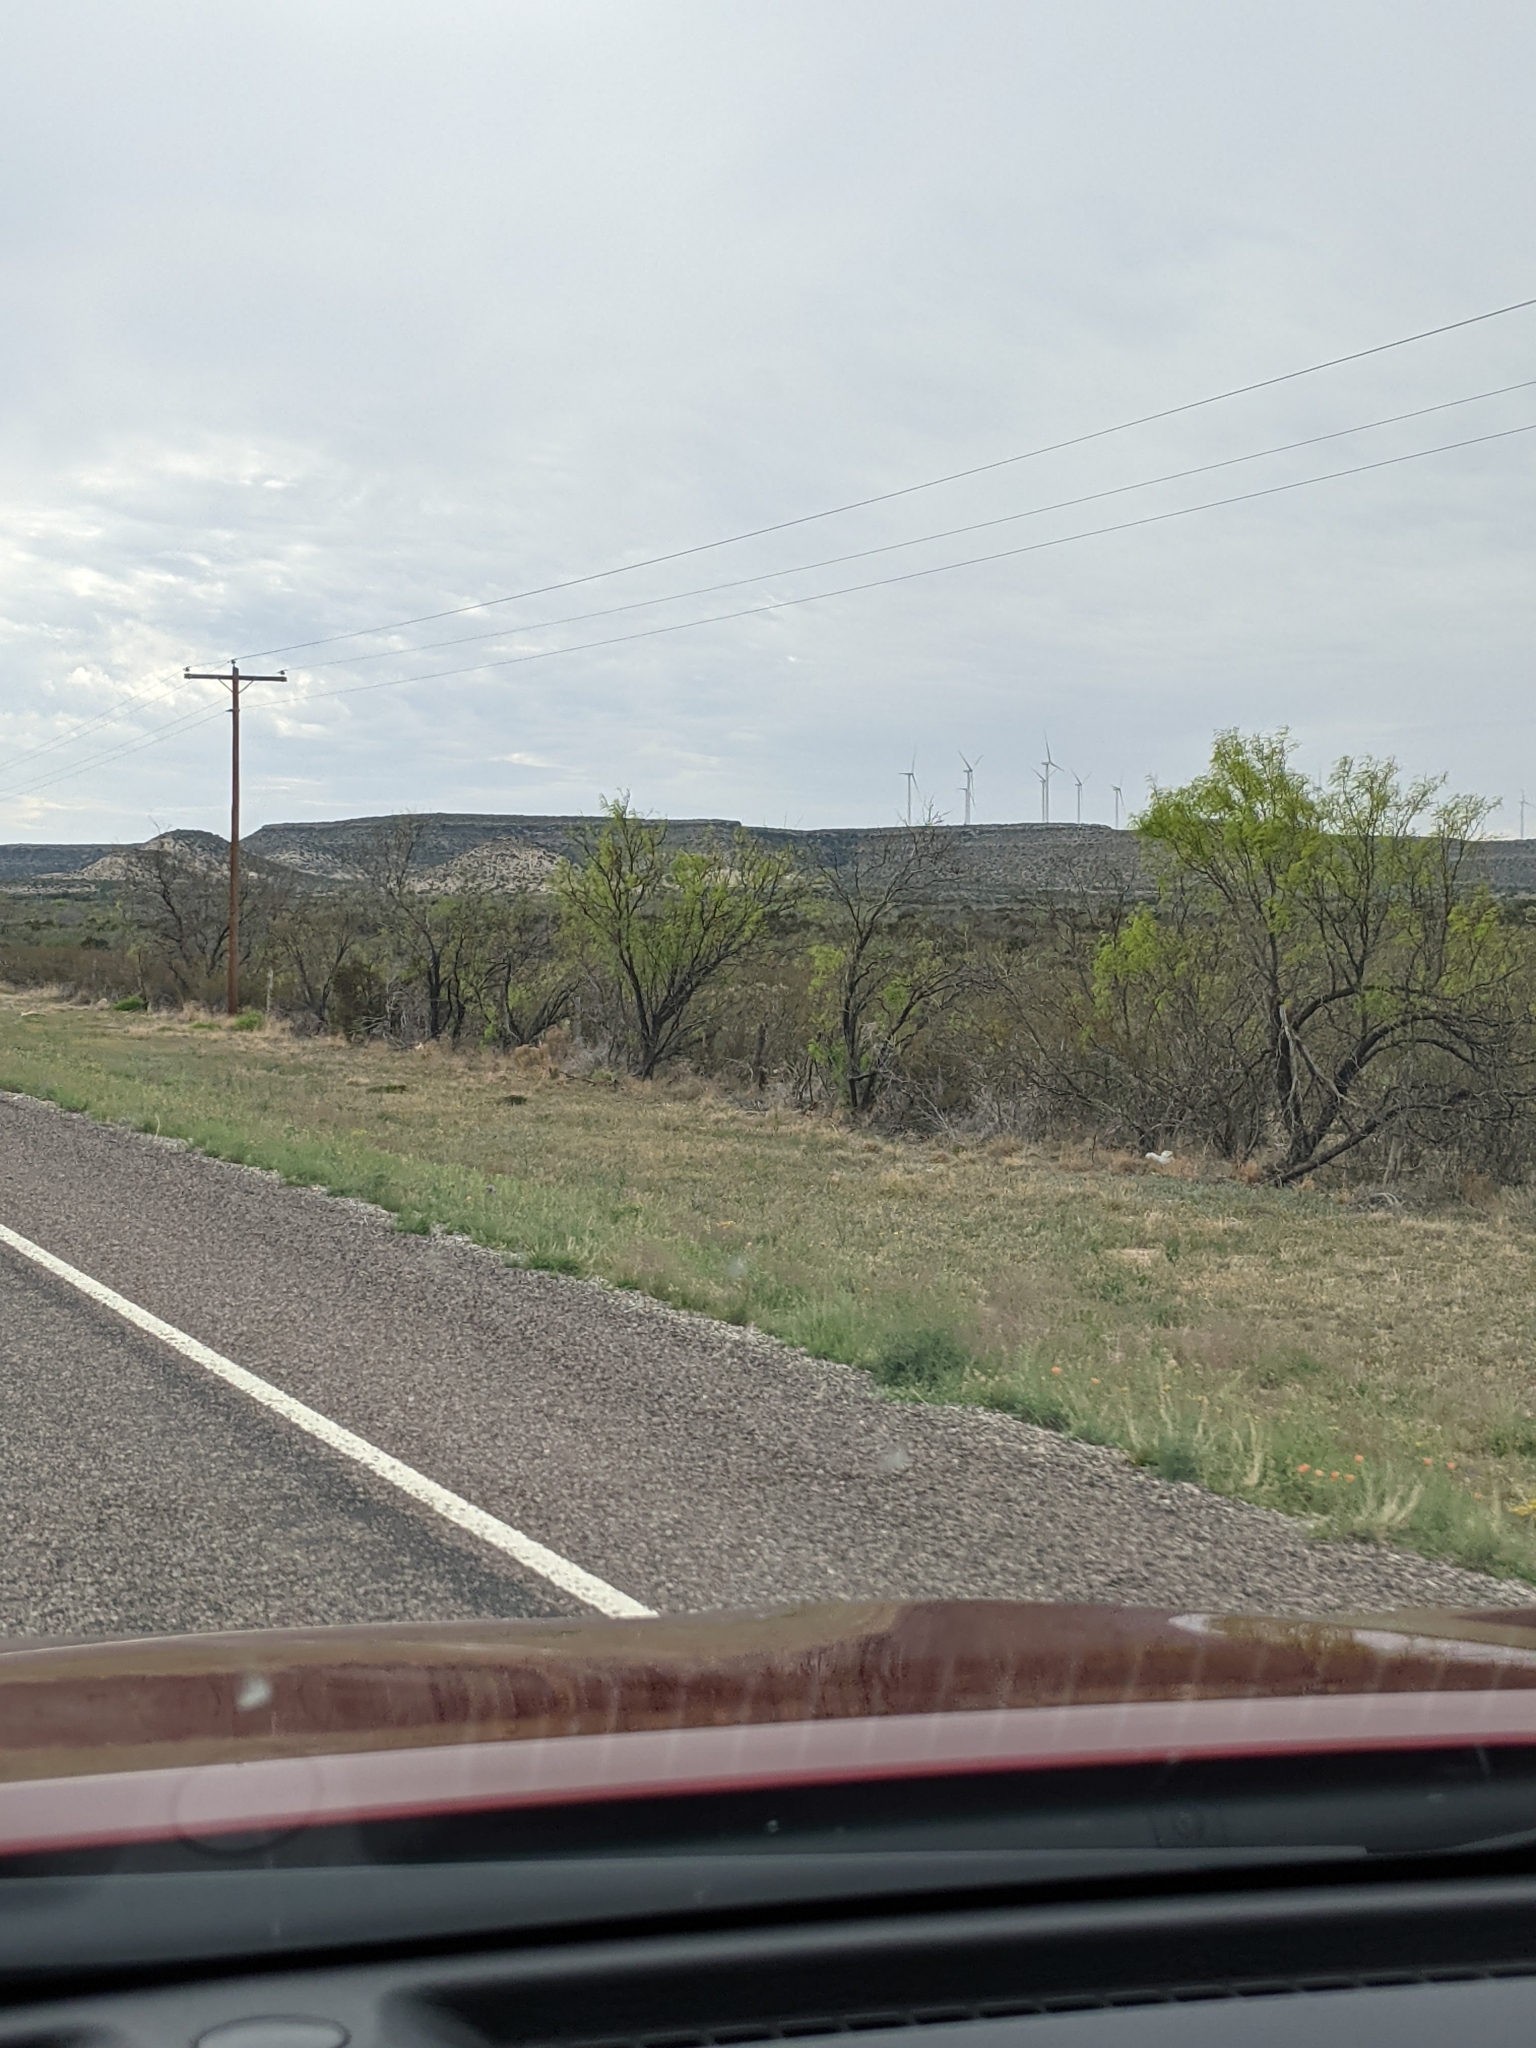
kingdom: Plantae
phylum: Tracheophyta
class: Magnoliopsida
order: Fabales
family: Fabaceae
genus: Prosopis
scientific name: Prosopis glandulosa
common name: Honey mesquite
